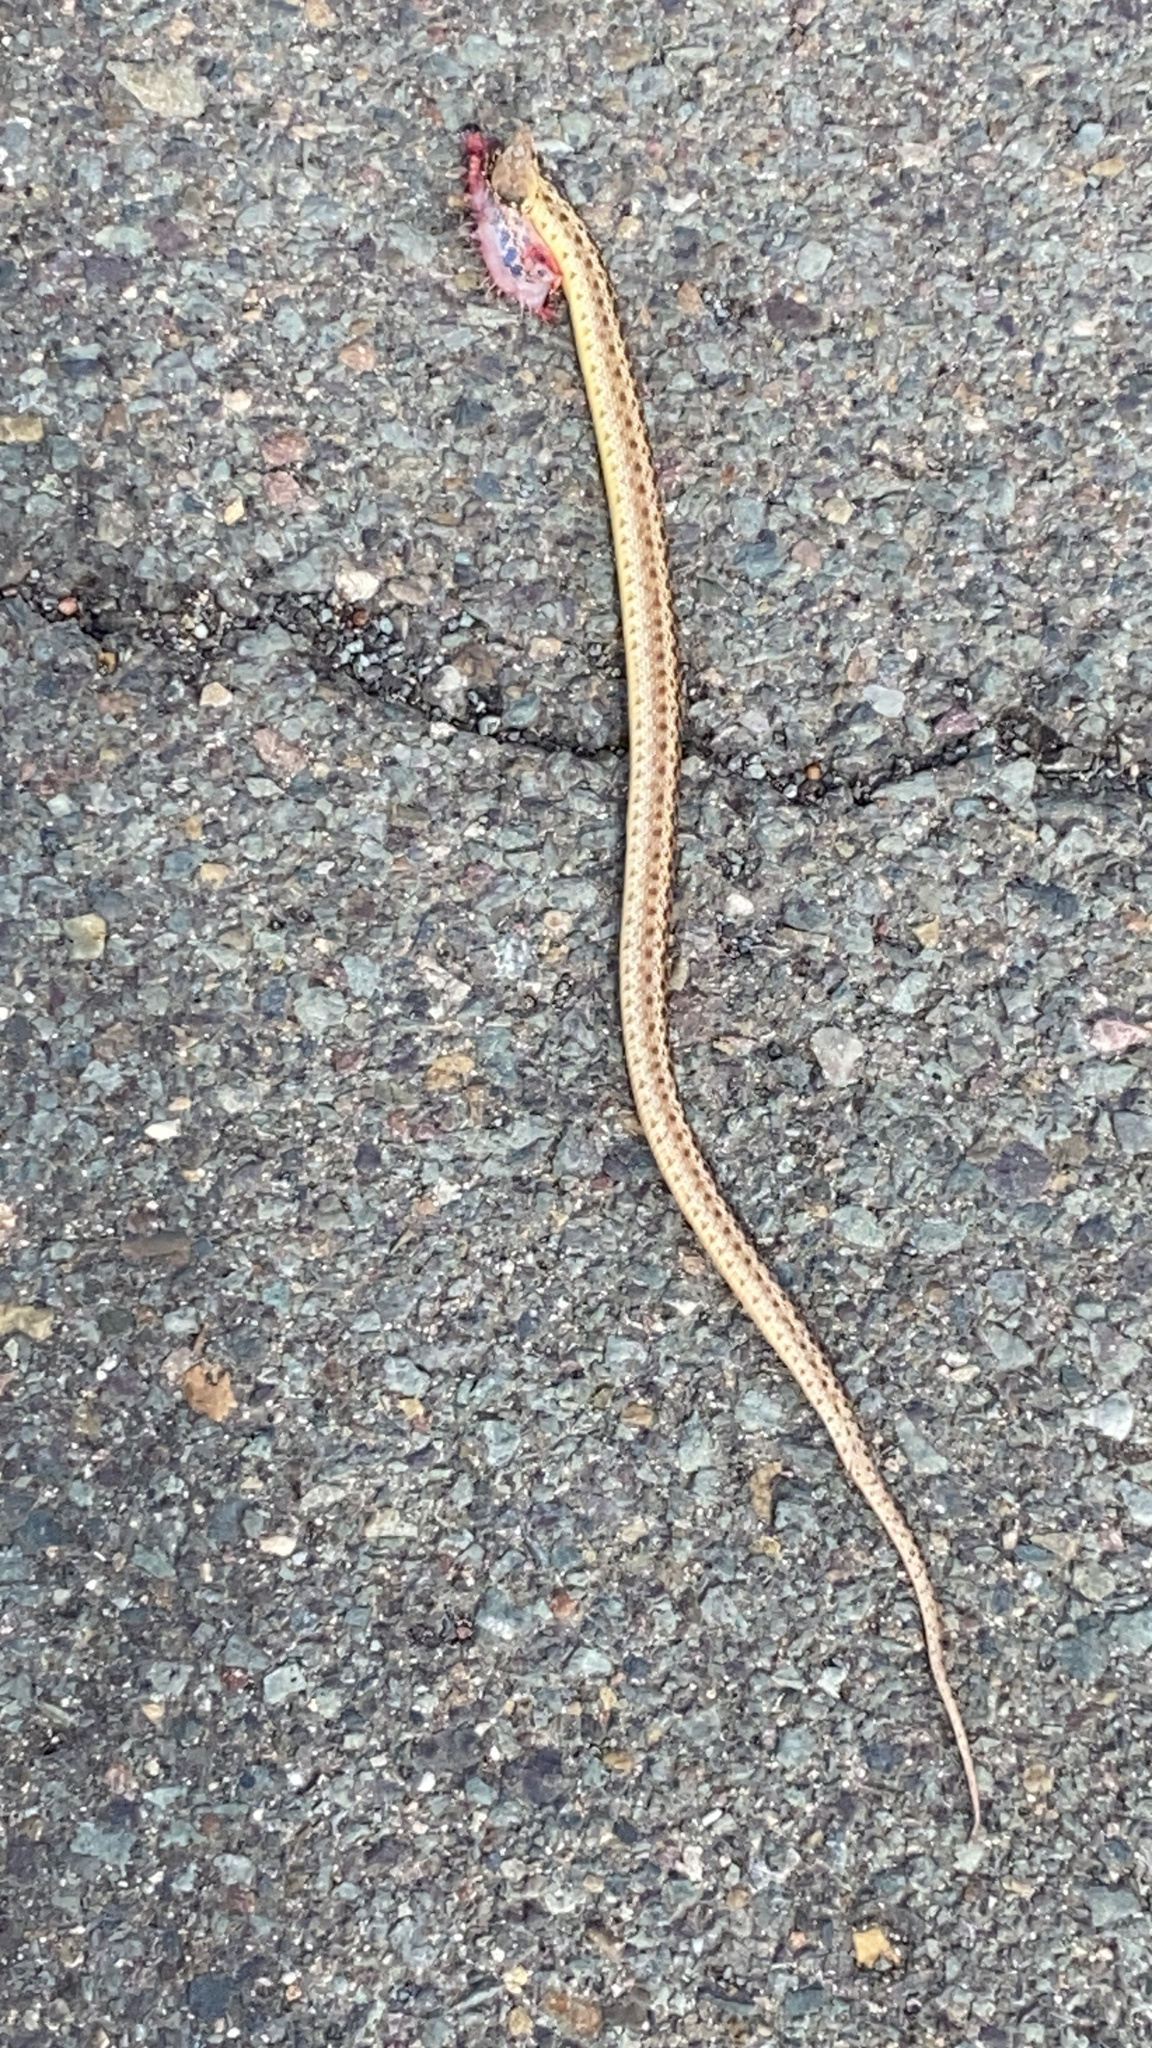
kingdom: Animalia
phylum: Chordata
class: Squamata
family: Colubridae
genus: Pituophis
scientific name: Pituophis catenifer
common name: Gopher snake
